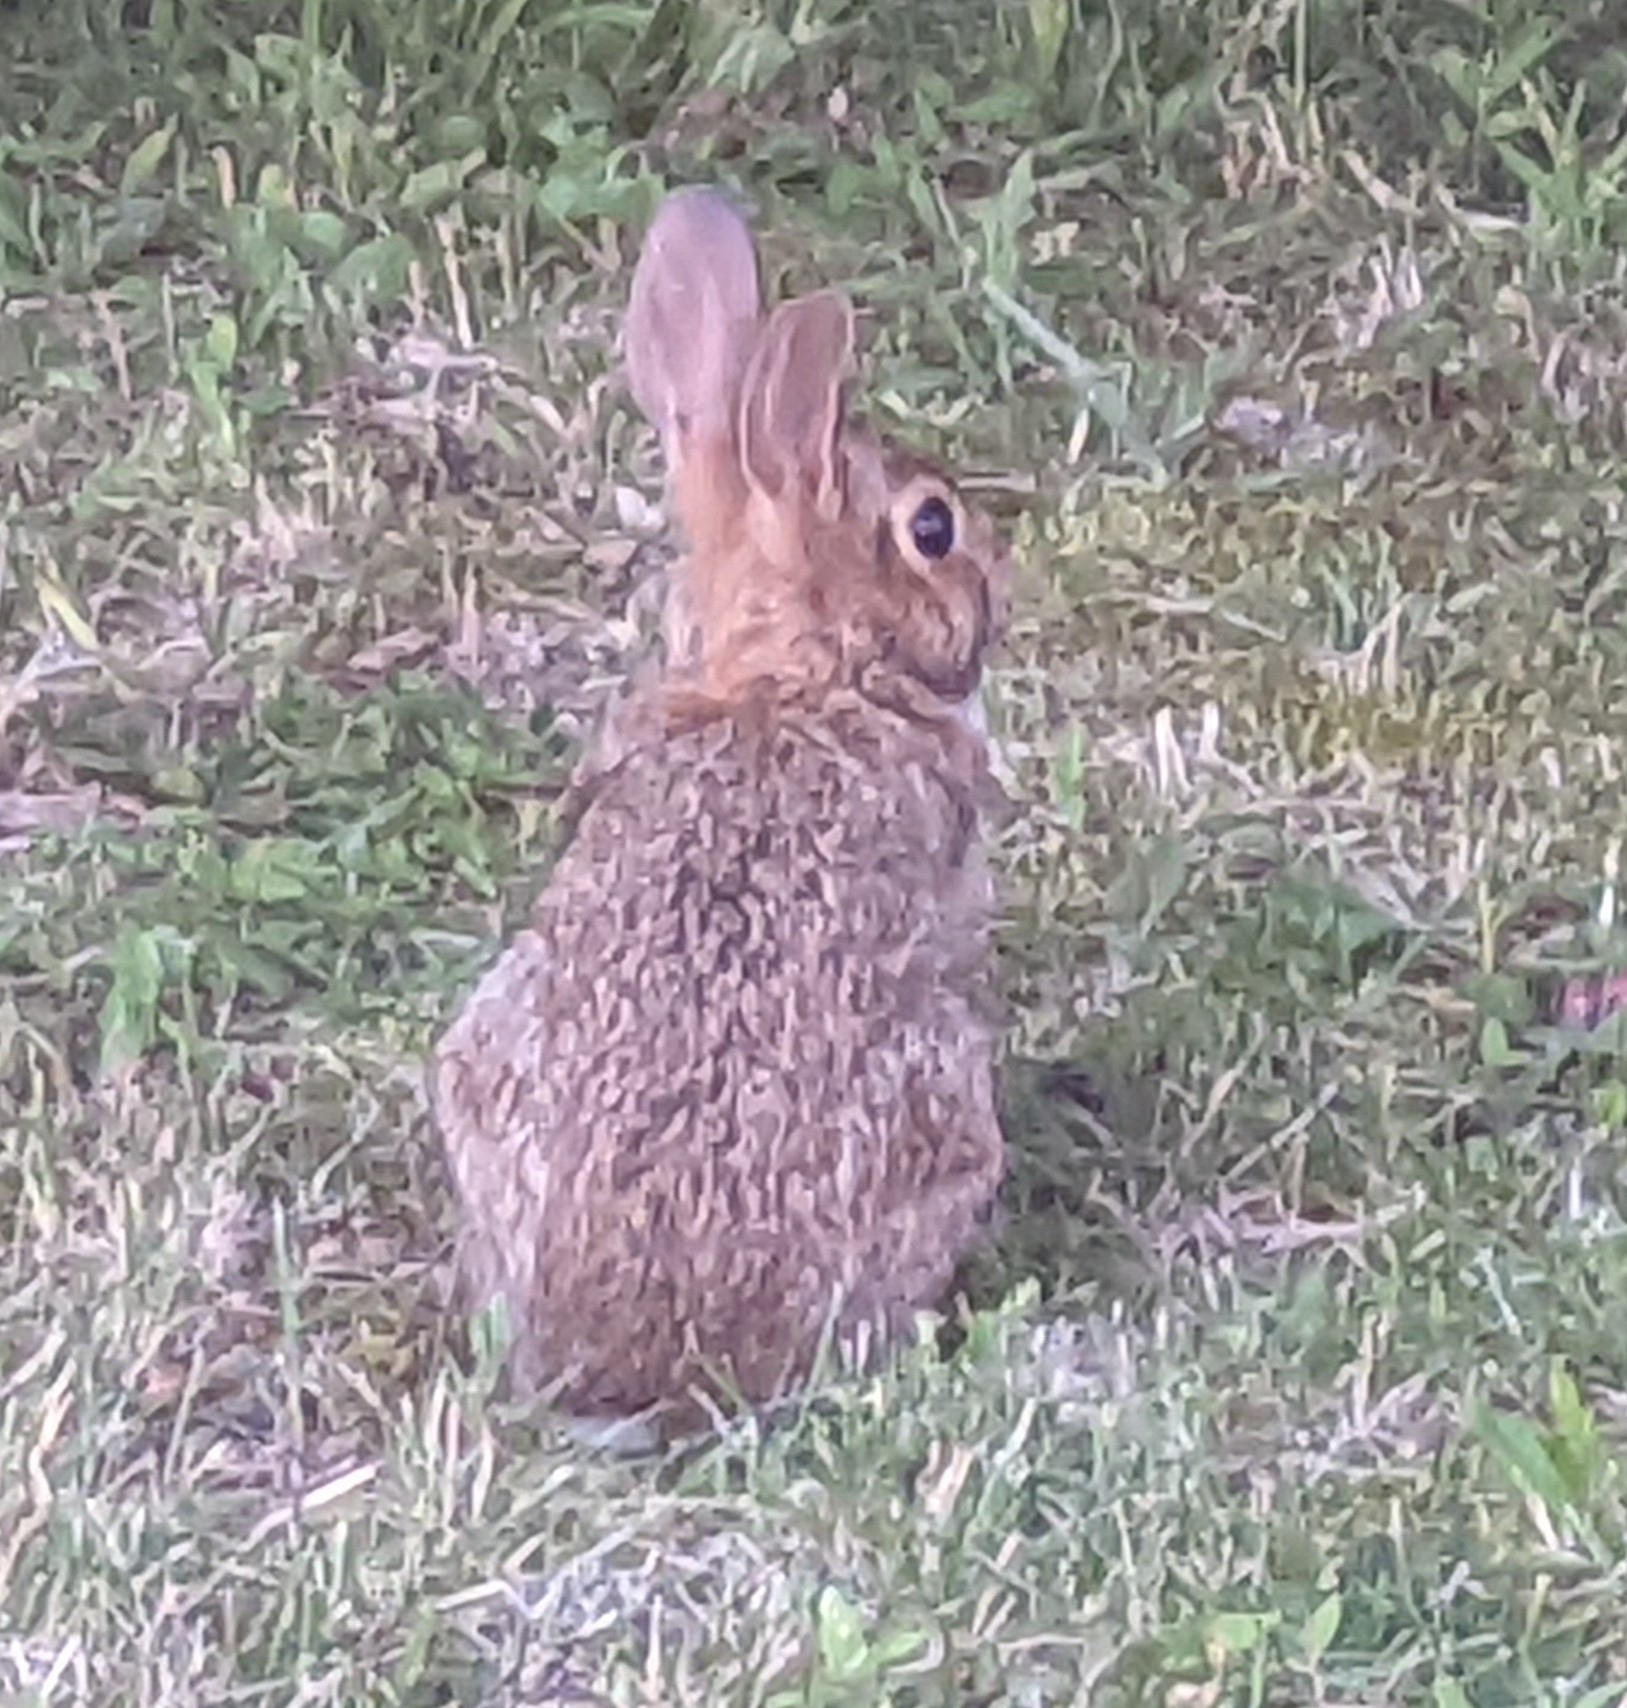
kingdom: Animalia
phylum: Chordata
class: Mammalia
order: Lagomorpha
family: Leporidae
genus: Sylvilagus
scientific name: Sylvilagus floridanus
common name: Eastern cottontail
